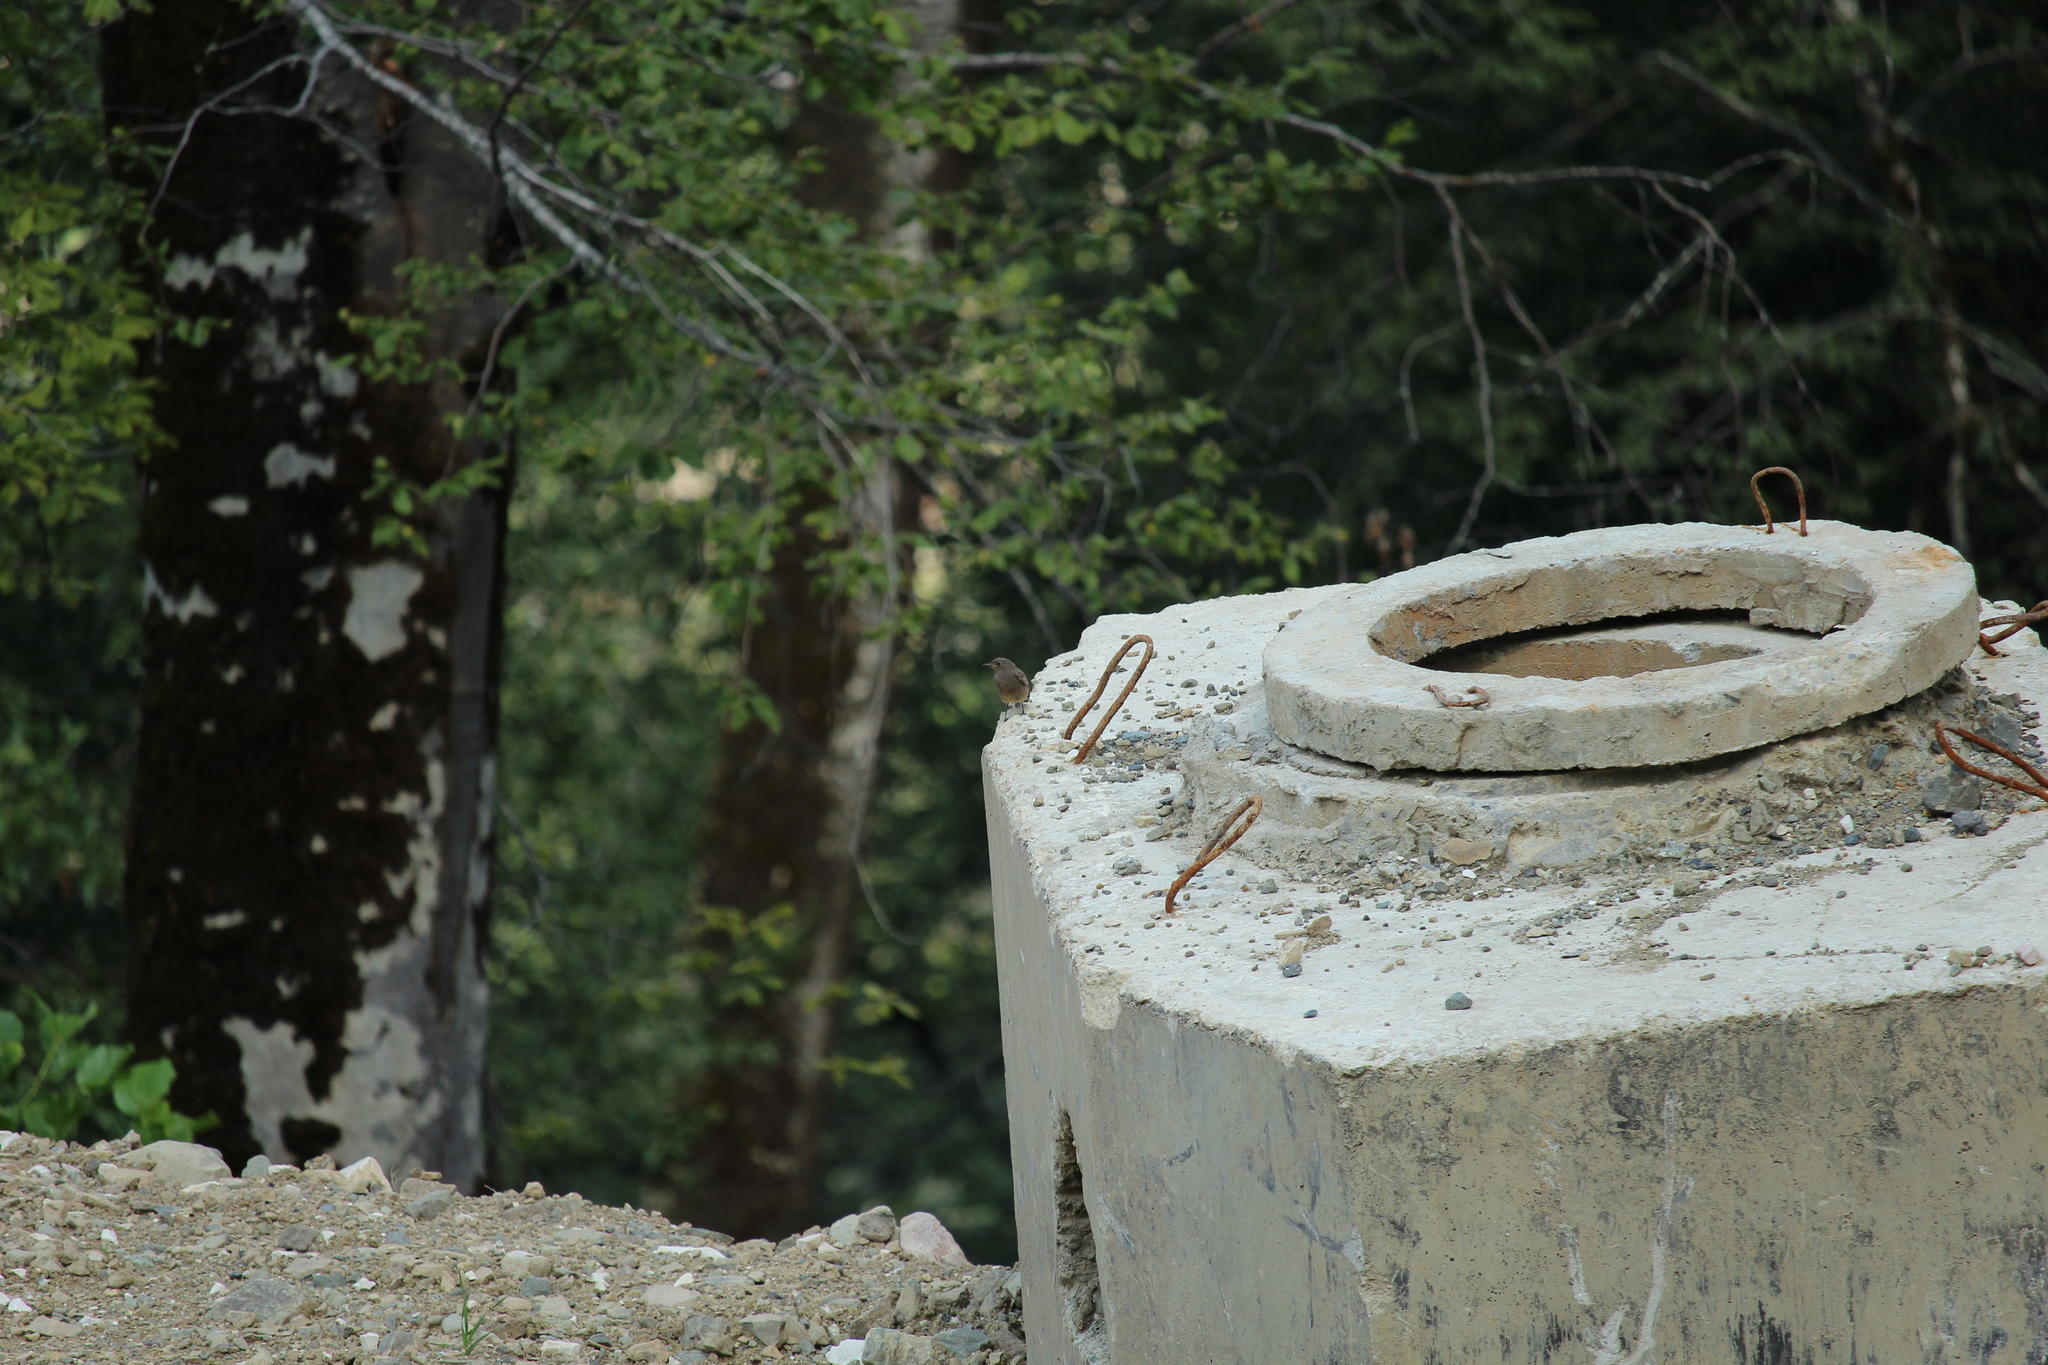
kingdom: Animalia
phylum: Chordata
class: Aves
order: Passeriformes
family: Muscicapidae
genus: Phoenicurus
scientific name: Phoenicurus ochruros
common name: Black redstart
